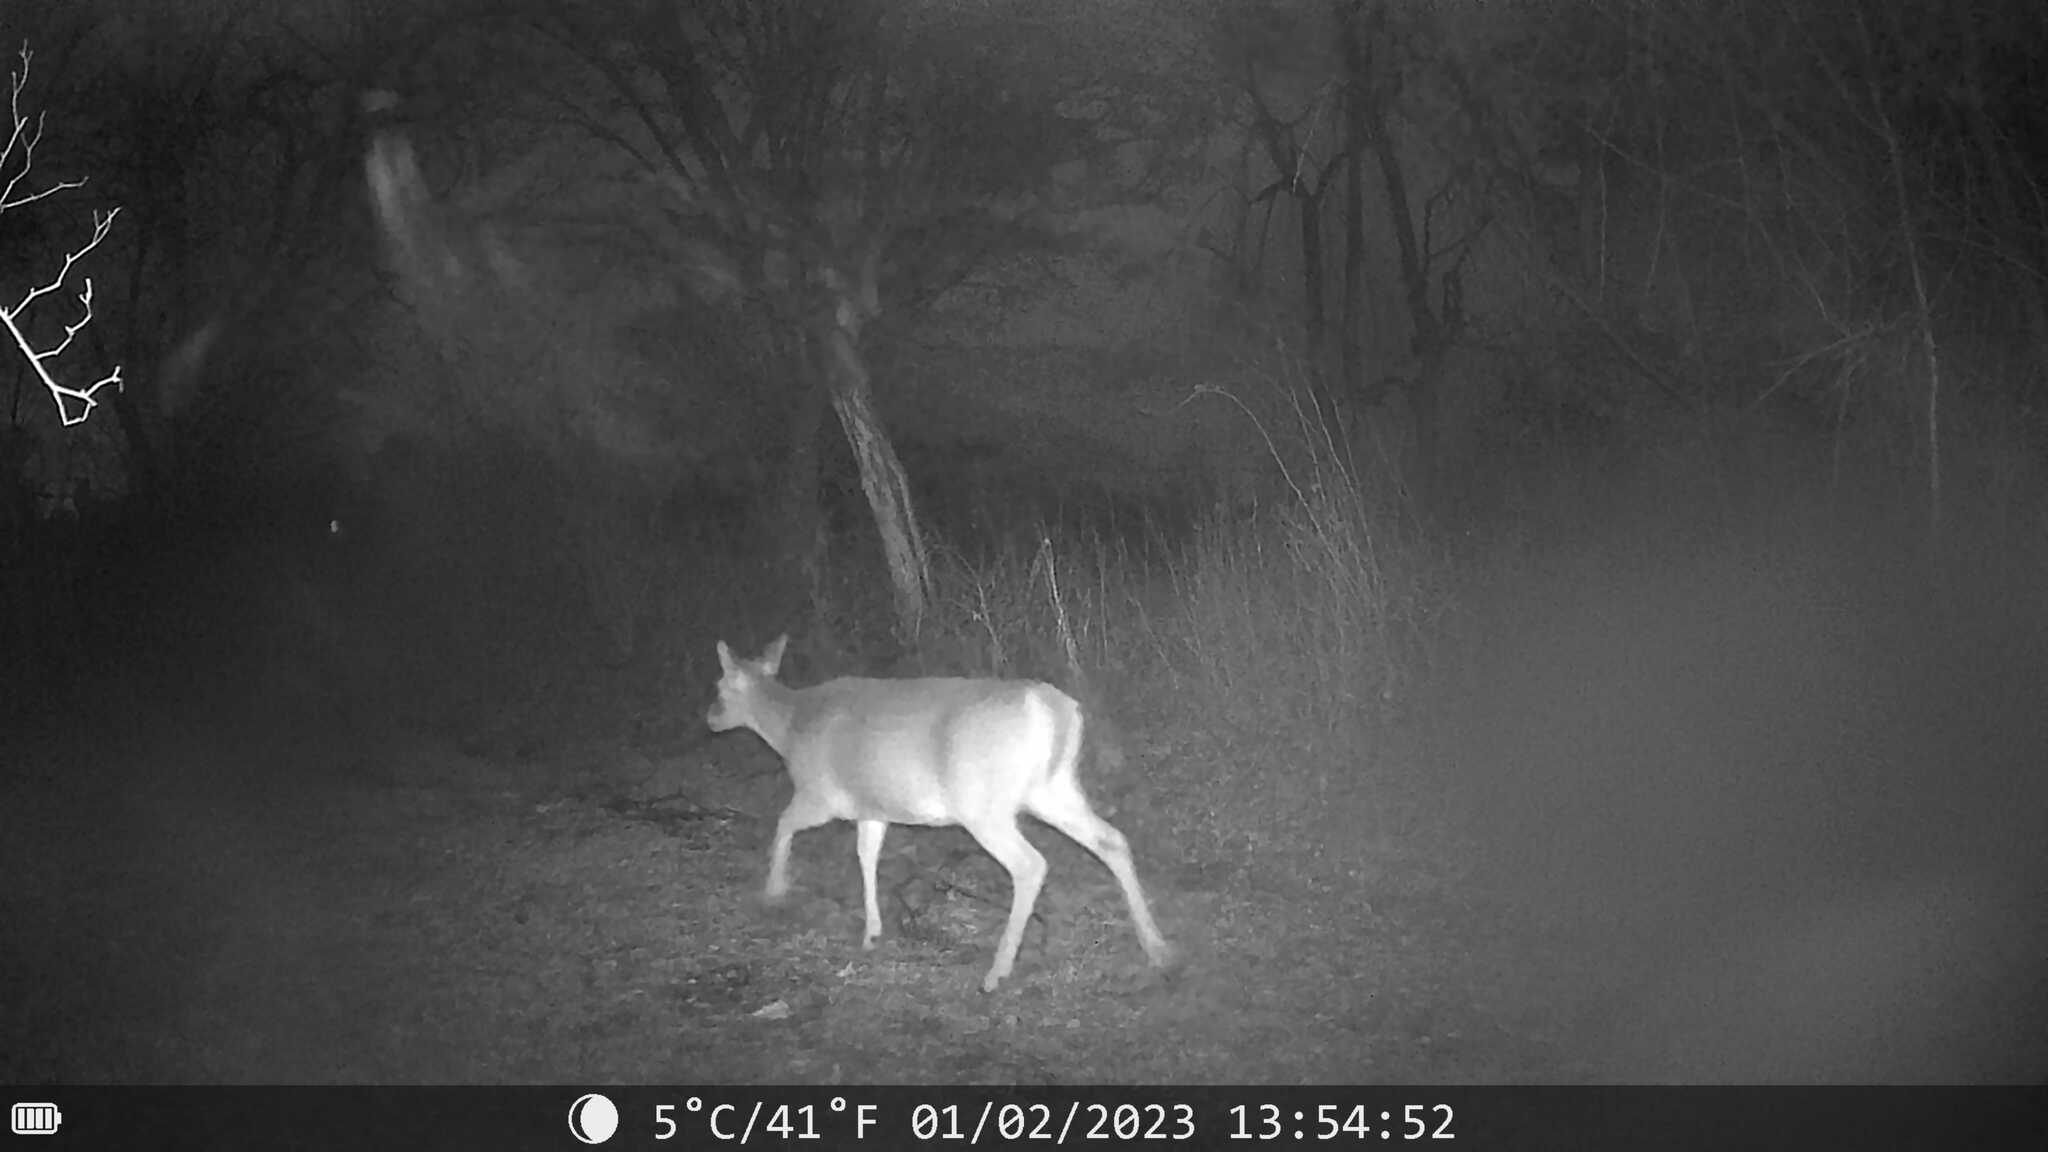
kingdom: Animalia
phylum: Chordata
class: Mammalia
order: Artiodactyla
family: Cervidae
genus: Odocoileus
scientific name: Odocoileus virginianus
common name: White-tailed deer
